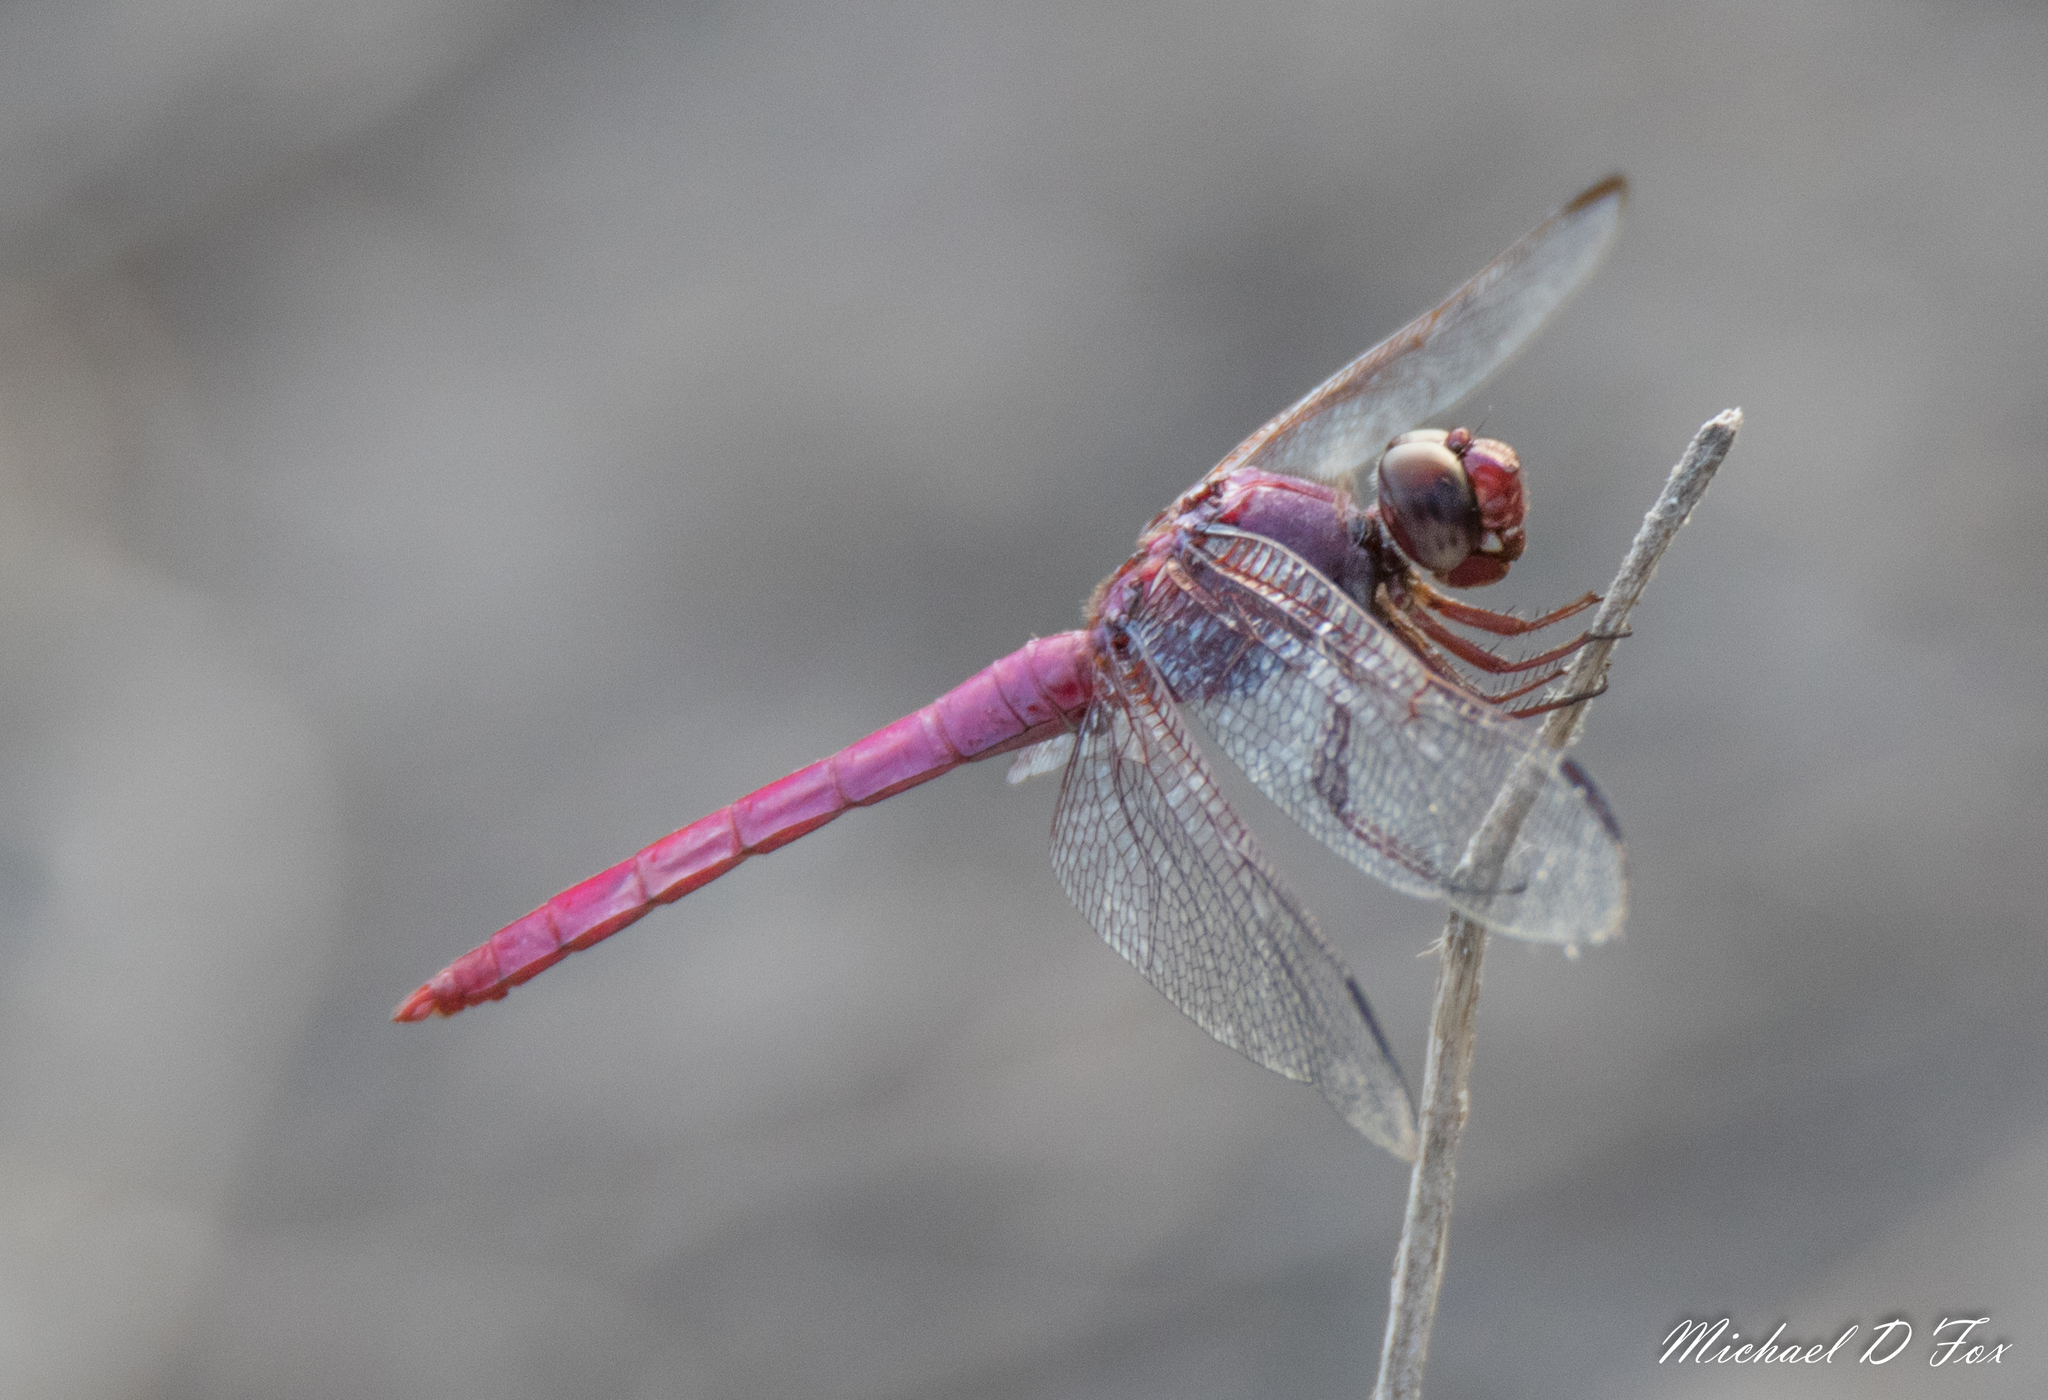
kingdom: Animalia
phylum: Arthropoda
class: Insecta
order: Odonata
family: Libellulidae
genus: Orthemis
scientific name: Orthemis ferruginea
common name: Roseate skimmer
